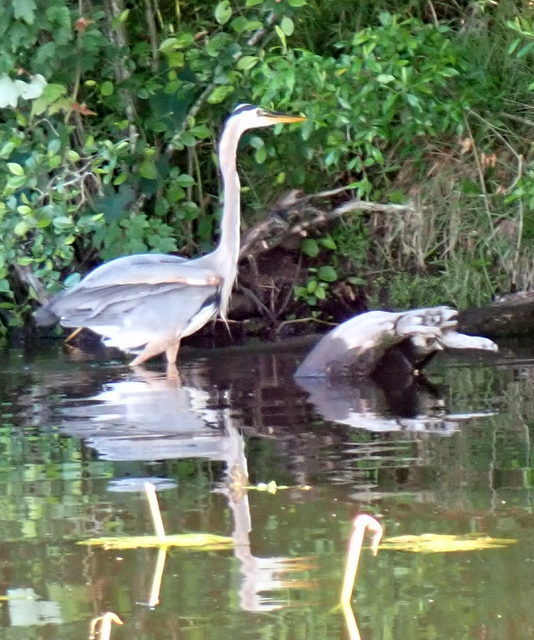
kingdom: Animalia
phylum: Chordata
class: Aves
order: Pelecaniformes
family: Ardeidae
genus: Ardea
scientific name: Ardea herodias
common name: Great blue heron
